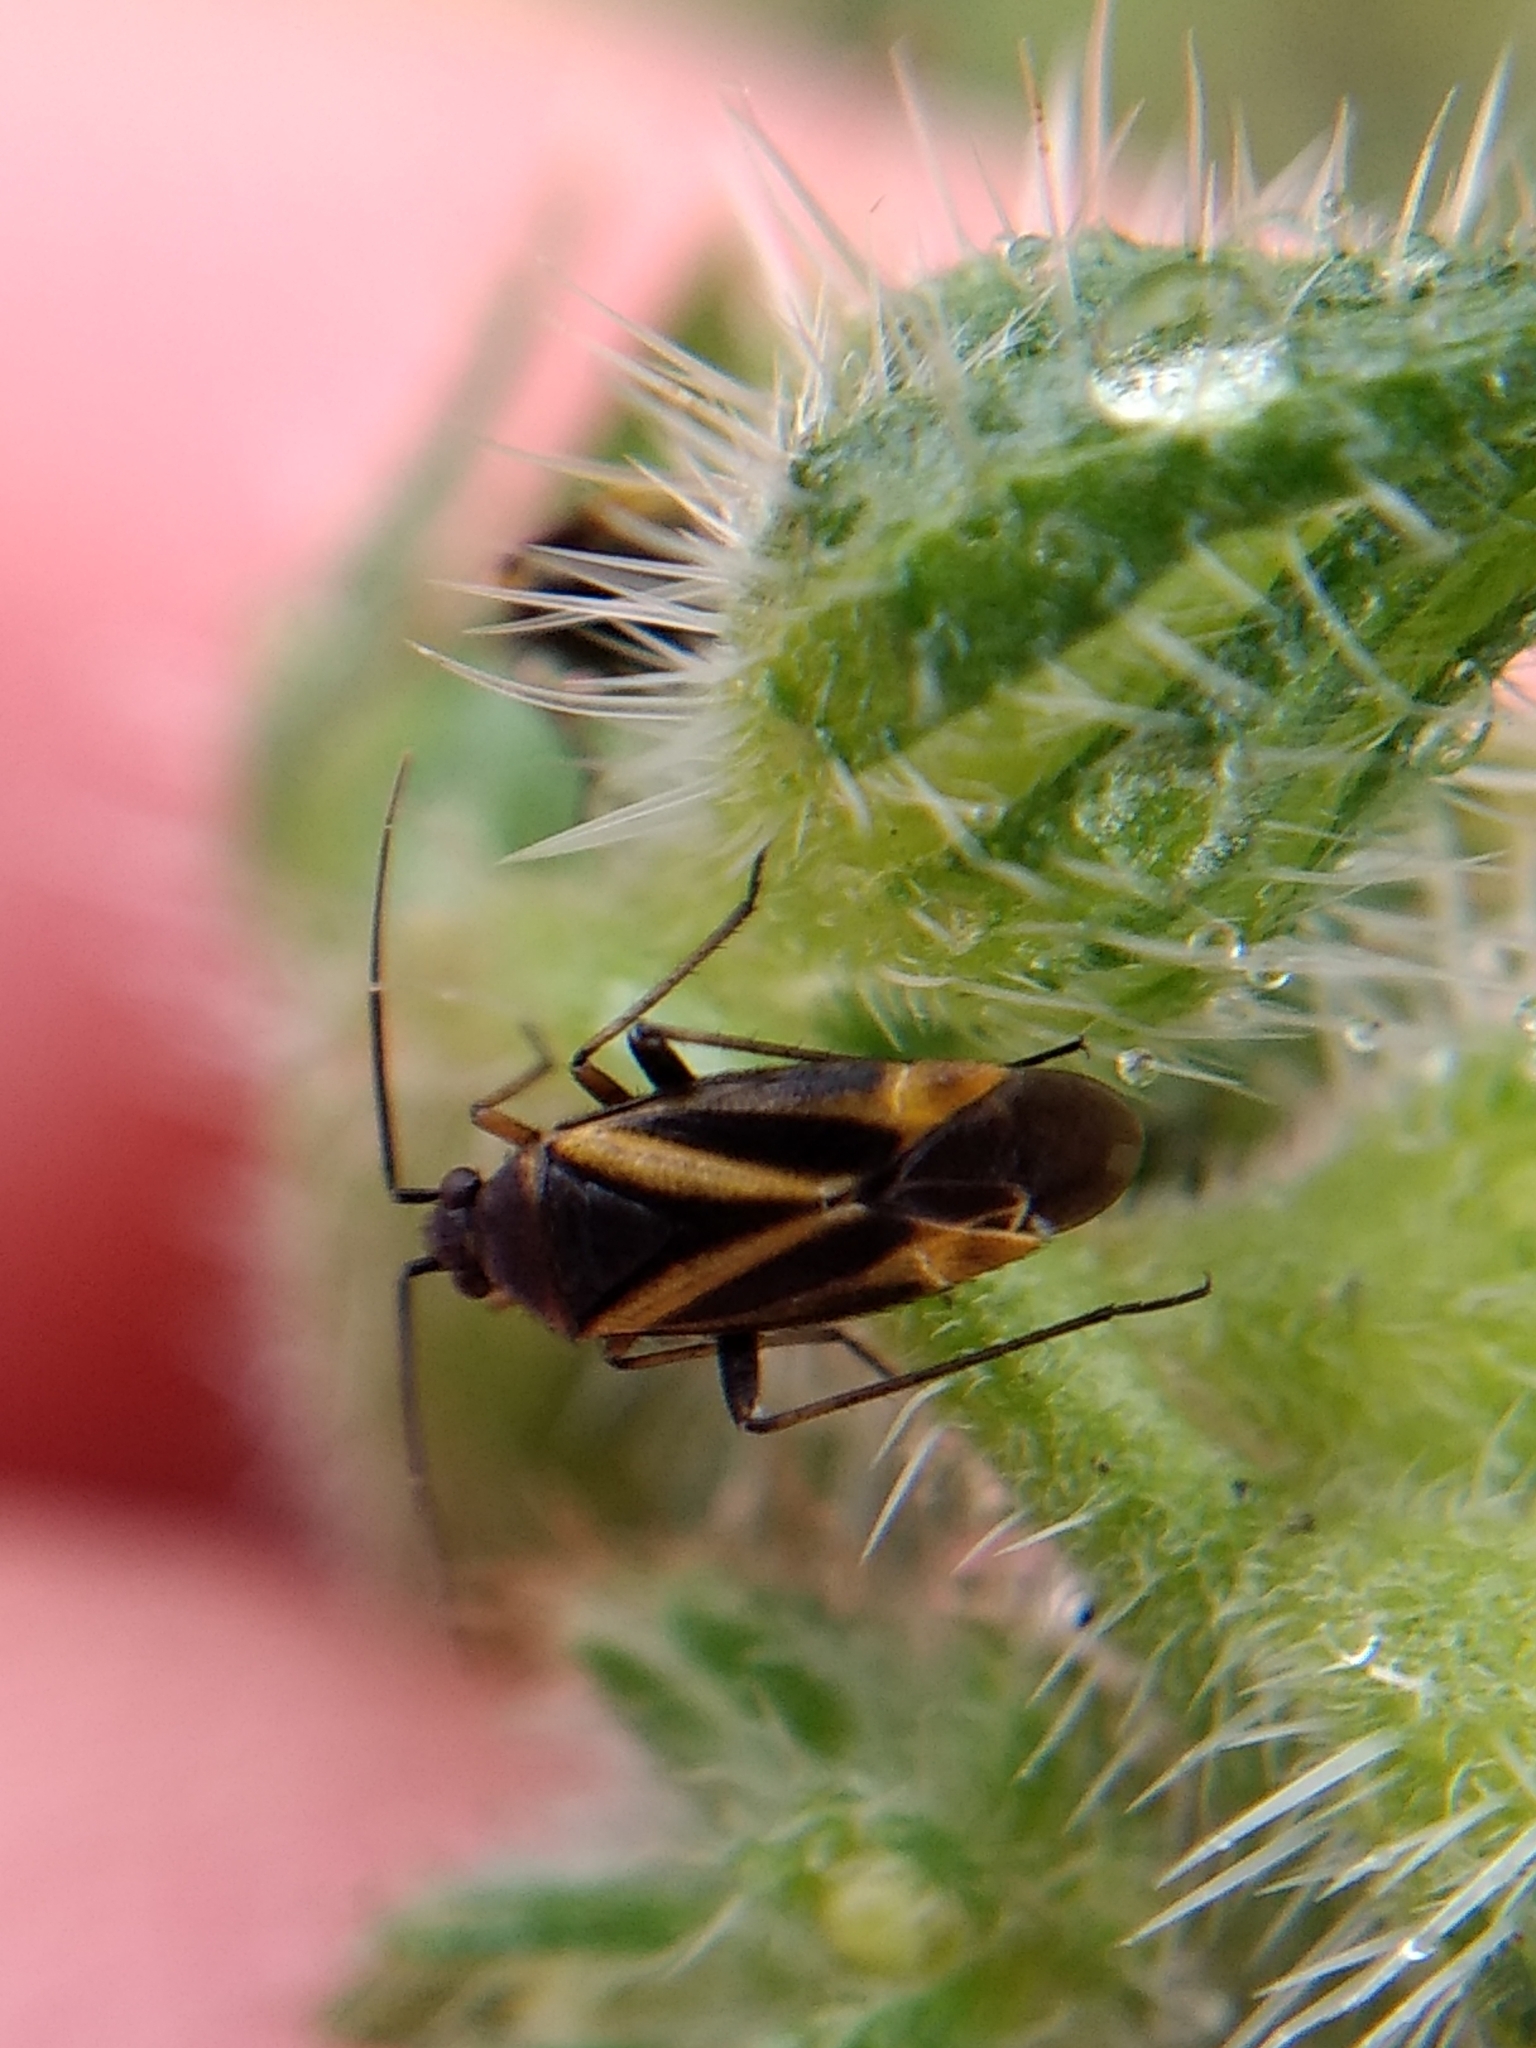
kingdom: Animalia
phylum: Arthropoda
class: Insecta
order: Hemiptera
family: Miridae
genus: Plagiognathus
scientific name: Plagiognathus moerens
